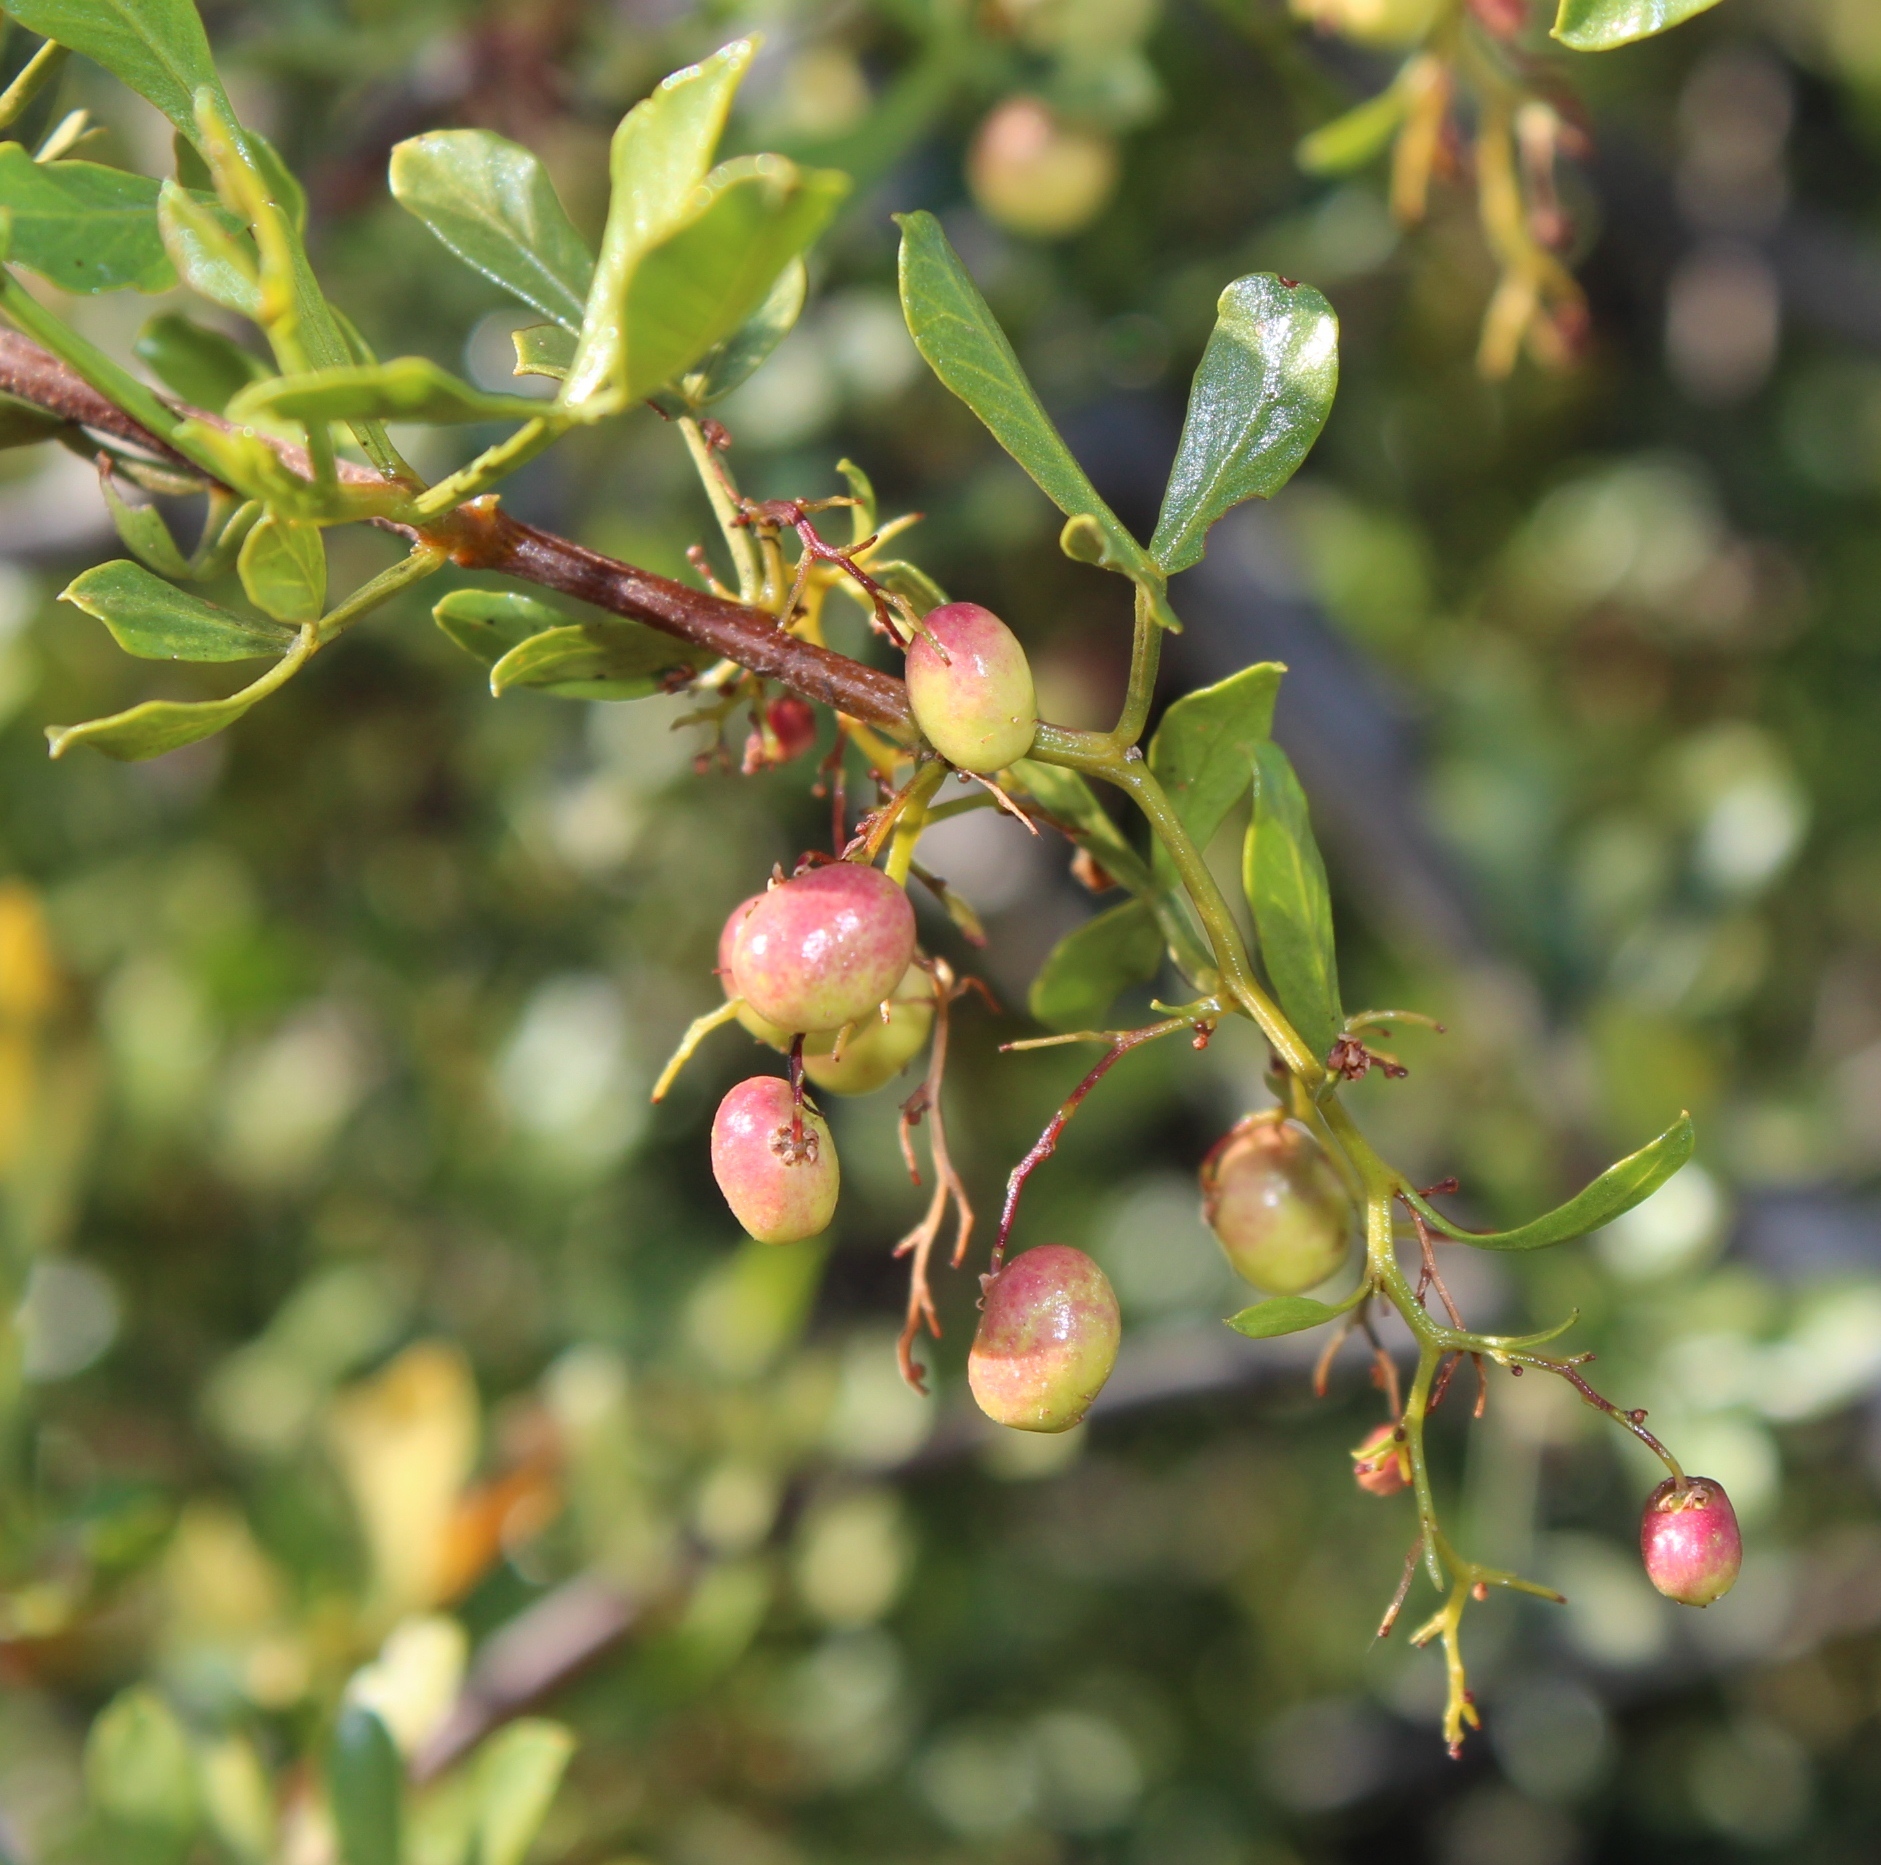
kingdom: Plantae
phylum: Tracheophyta
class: Magnoliopsida
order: Sapindales
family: Anacardiaceae
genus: Searsia
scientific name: Searsia undulata
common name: Namaqua kunibush
